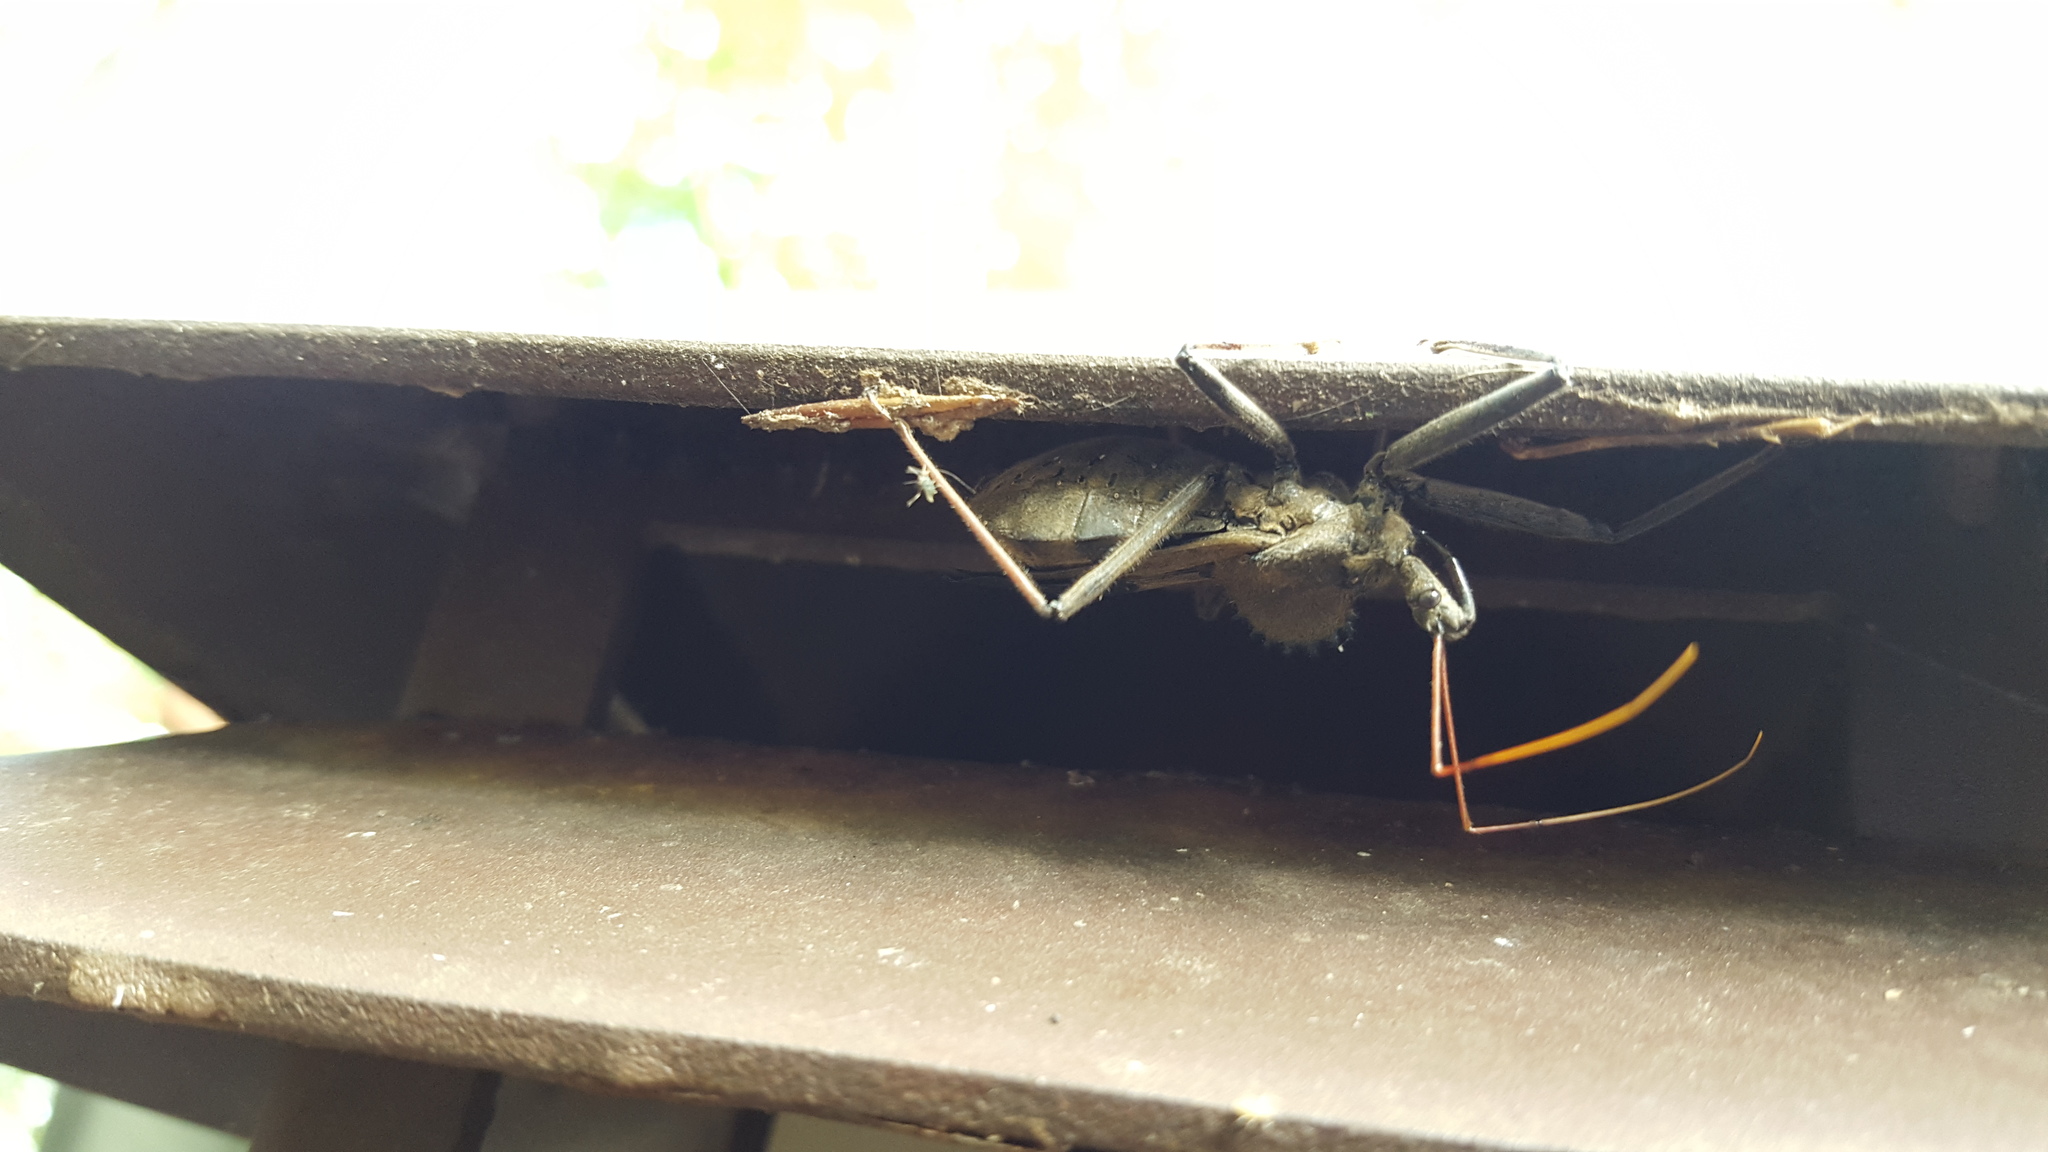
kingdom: Animalia
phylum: Arthropoda
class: Insecta
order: Hemiptera
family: Reduviidae
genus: Arilus
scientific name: Arilus cristatus
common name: North american wheel bug
